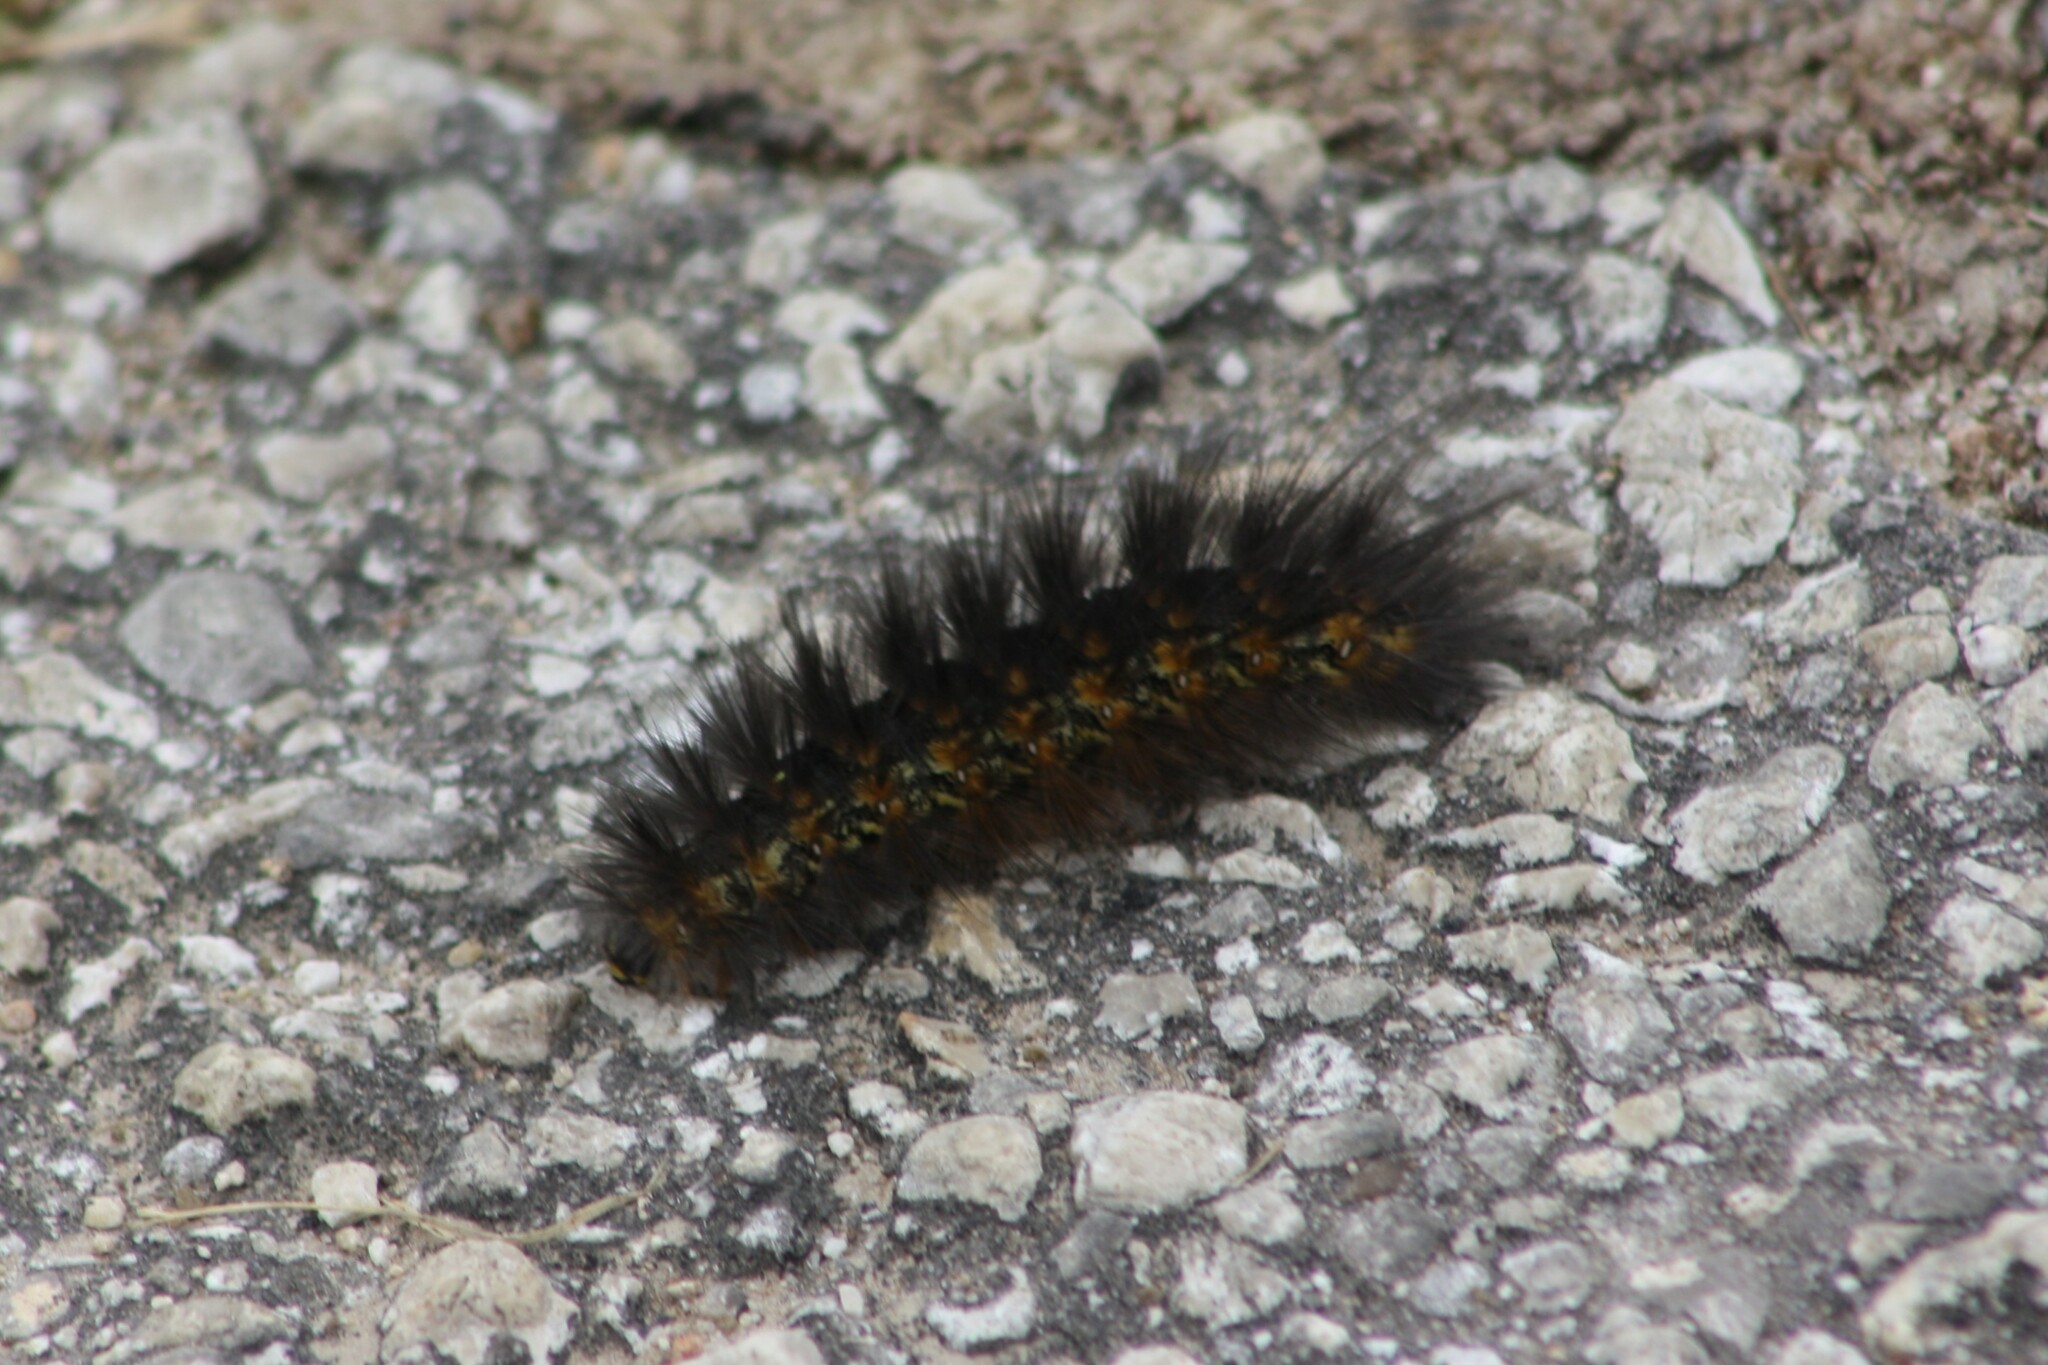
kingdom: Animalia
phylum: Arthropoda
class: Insecta
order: Lepidoptera
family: Erebidae
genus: Estigmene
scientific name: Estigmene acrea
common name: Salt marsh moth
